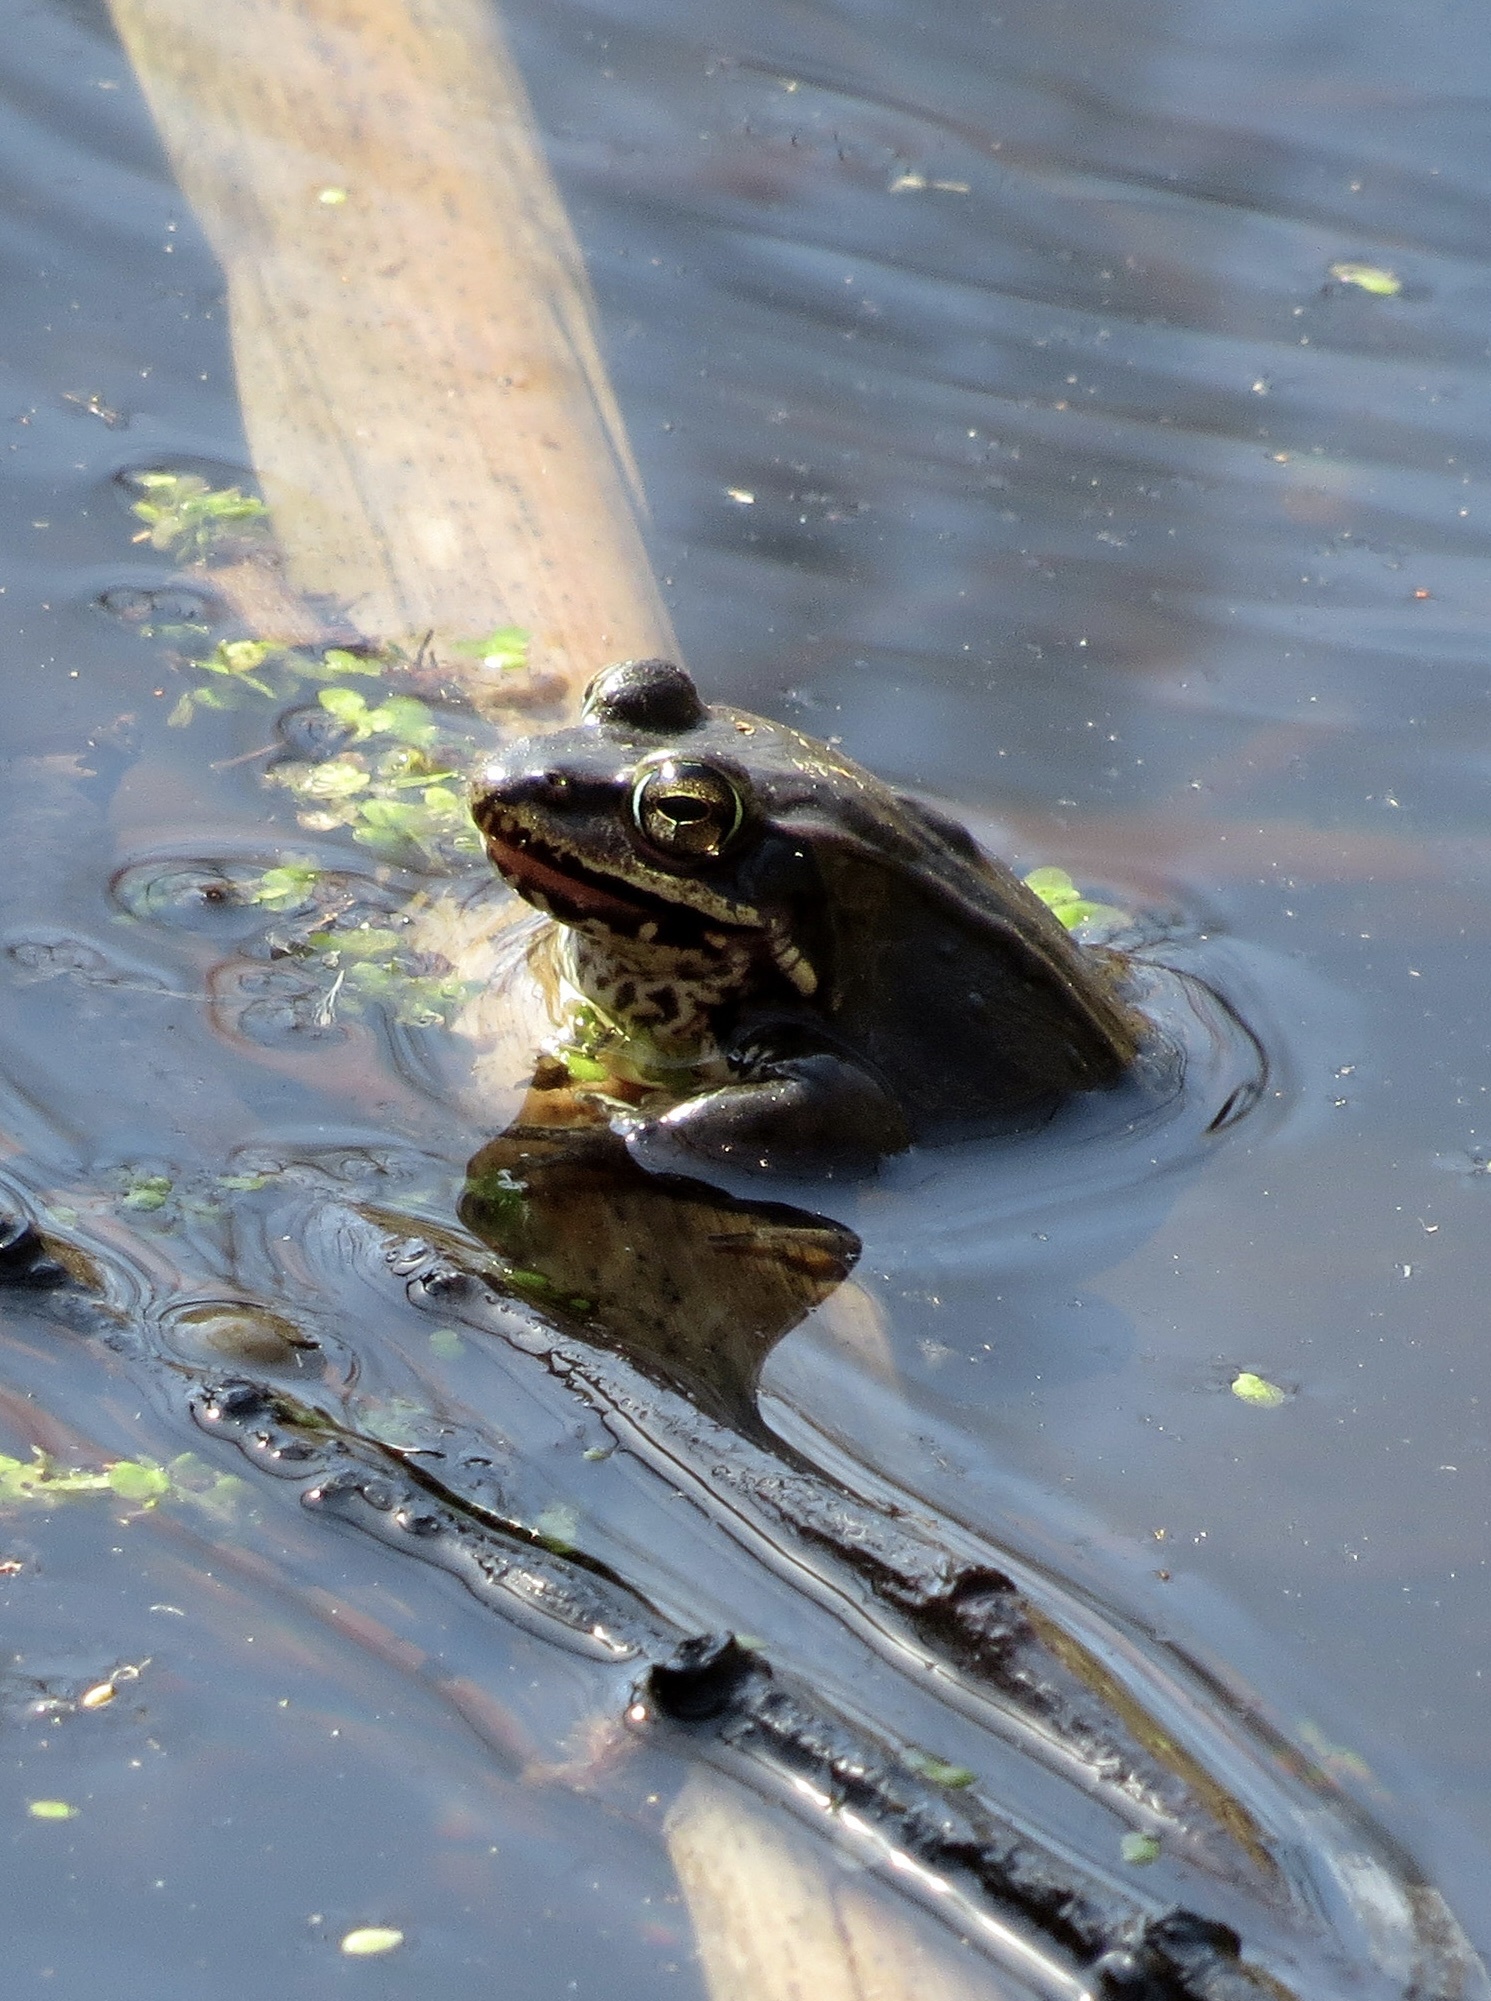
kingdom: Animalia
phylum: Chordata
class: Amphibia
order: Anura
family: Ranidae
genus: Lithobates
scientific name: Lithobates sylvaticus
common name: Wood frog
